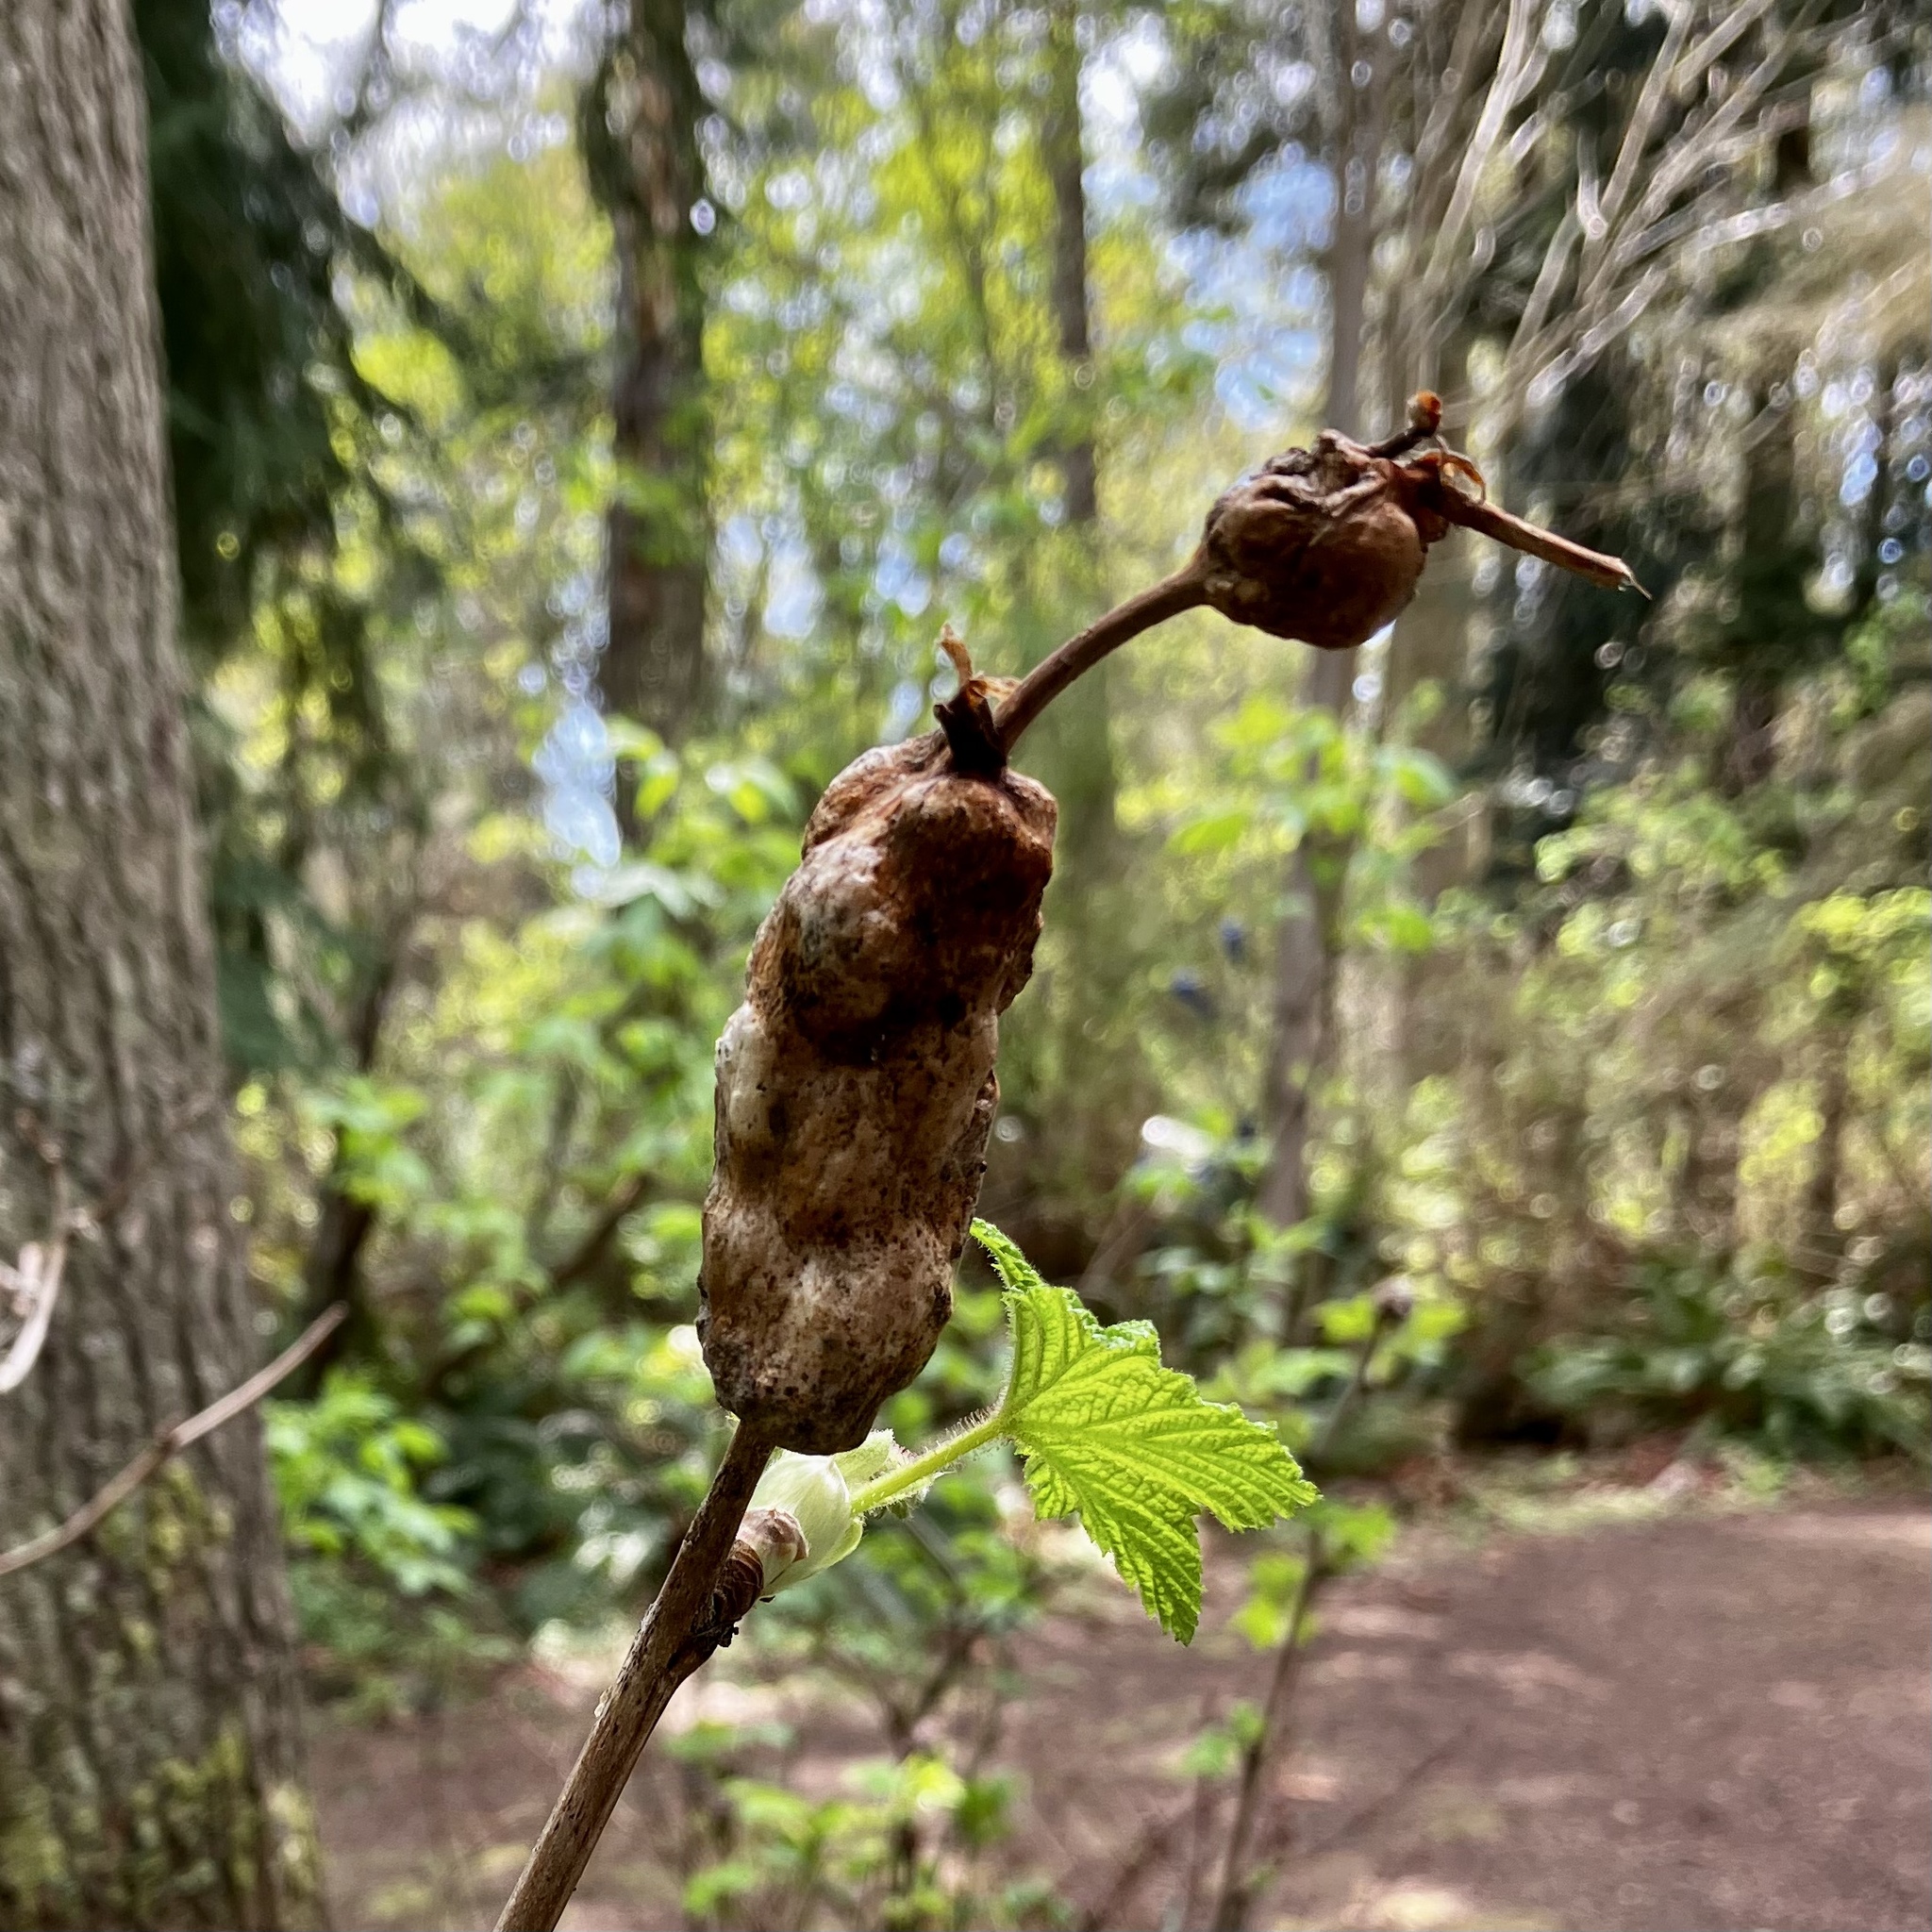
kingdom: Animalia
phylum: Arthropoda
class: Insecta
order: Hymenoptera
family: Cynipidae
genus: Diastrophus
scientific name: Diastrophus
